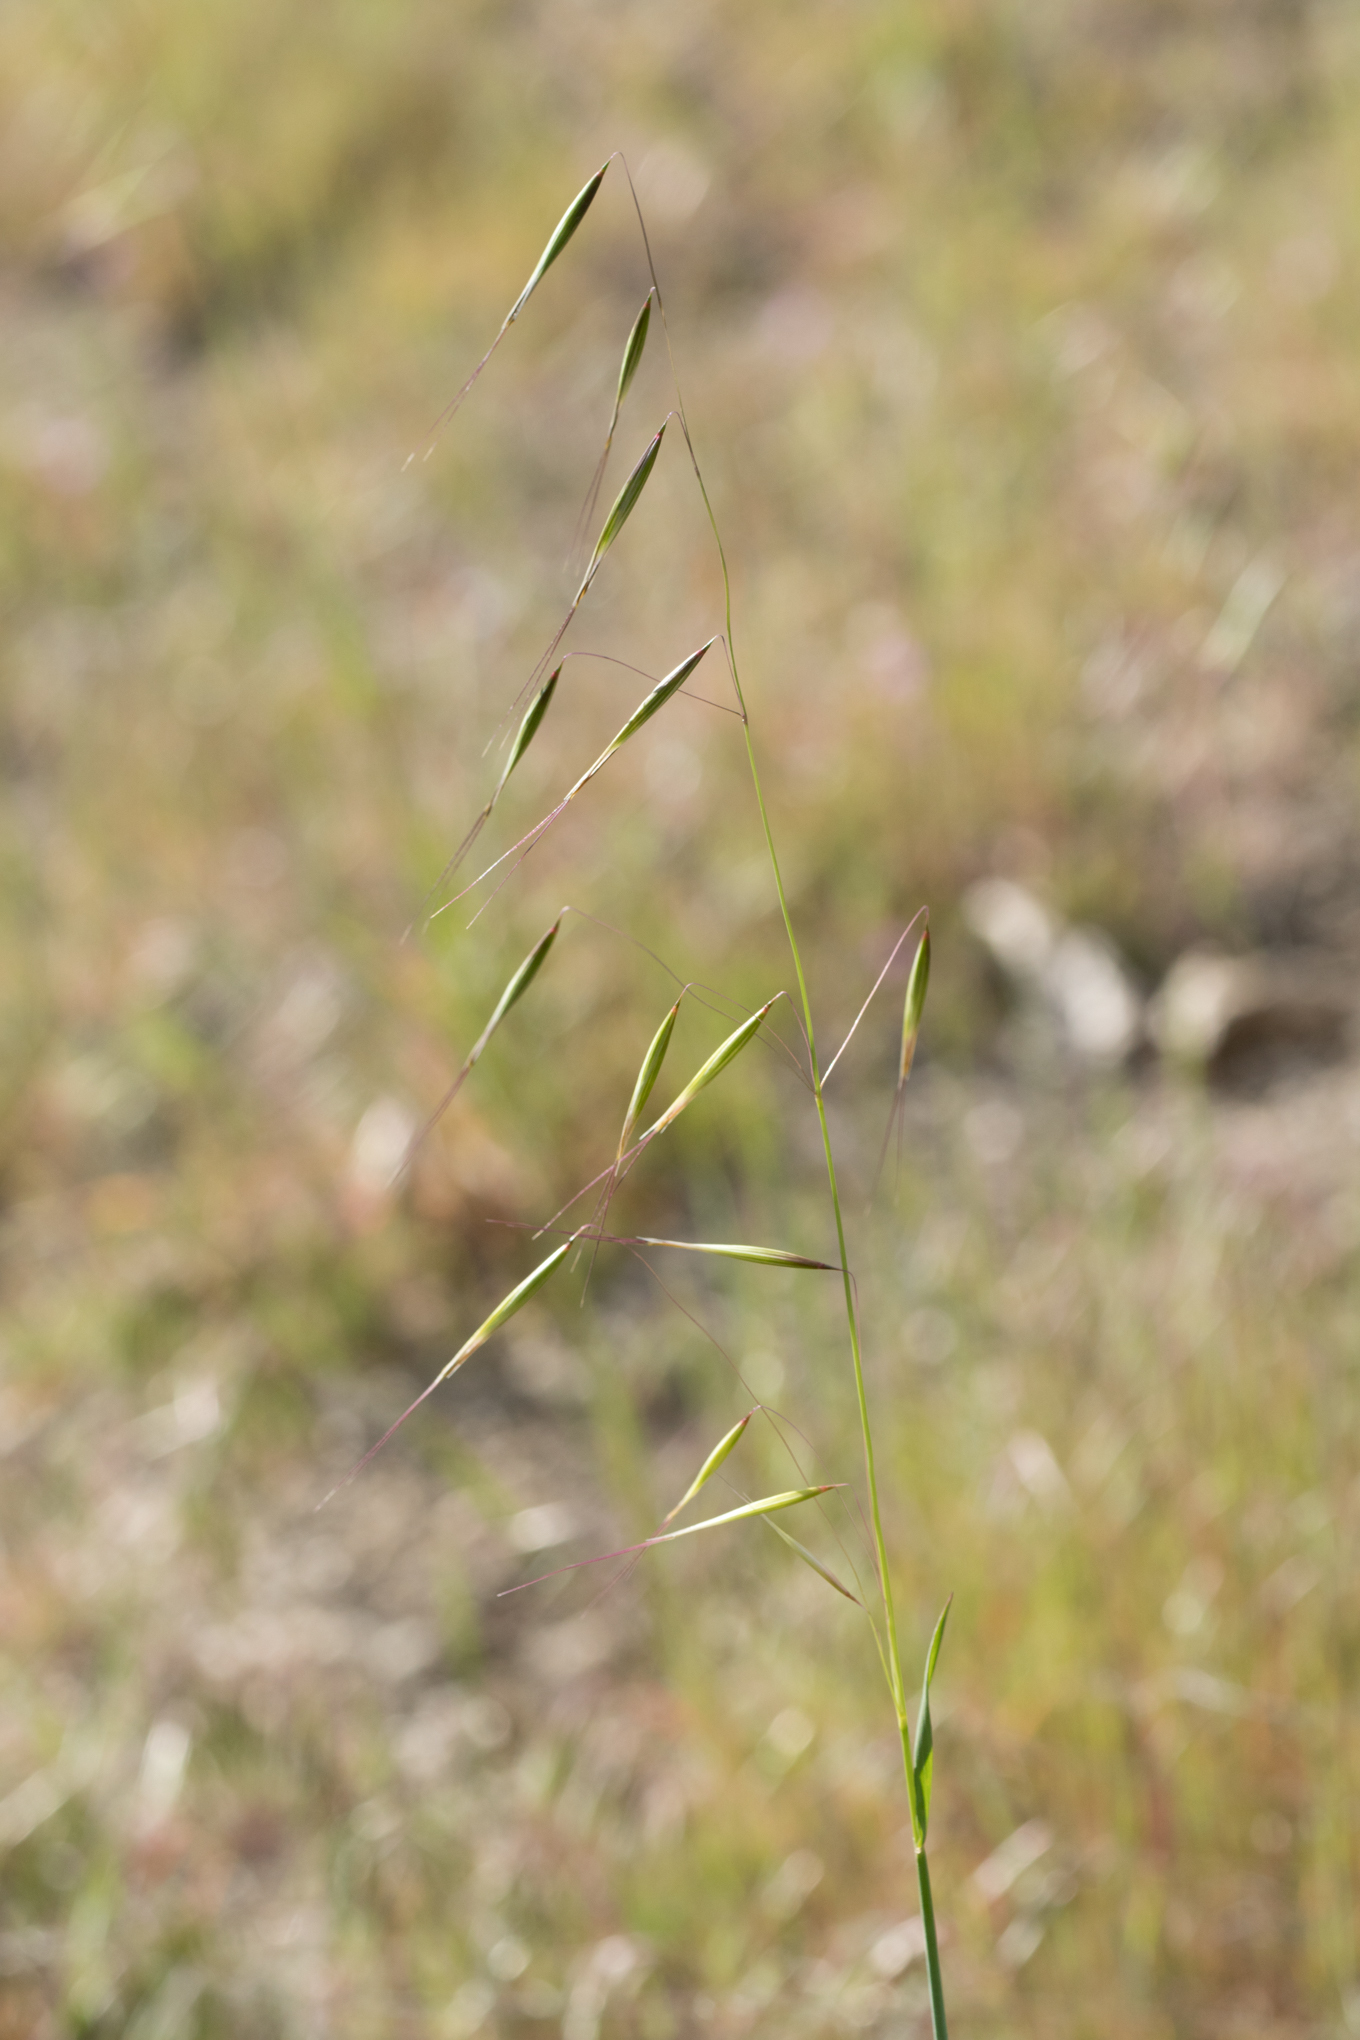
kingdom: Plantae
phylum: Tracheophyta
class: Liliopsida
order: Poales
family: Poaceae
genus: Avena
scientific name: Avena barbata
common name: Slender oat
